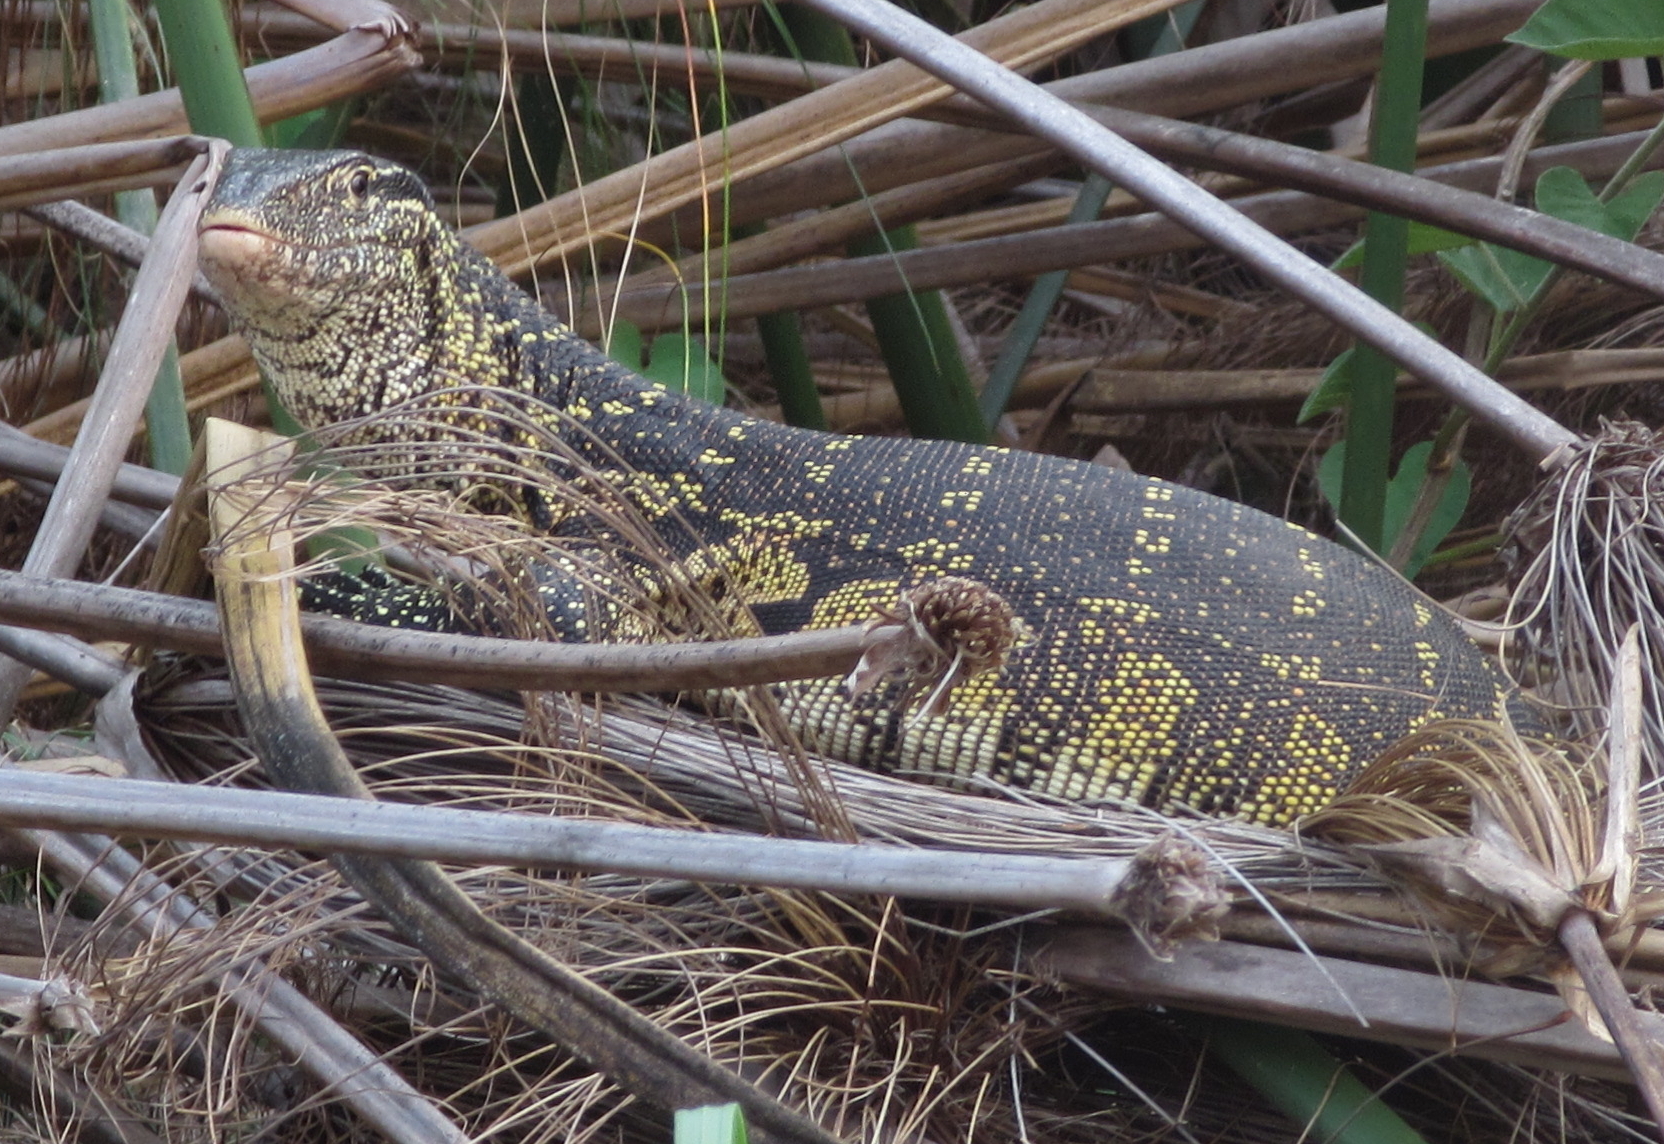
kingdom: Animalia
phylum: Chordata
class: Squamata
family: Varanidae
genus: Varanus
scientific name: Varanus niloticus
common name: Nile monitor
